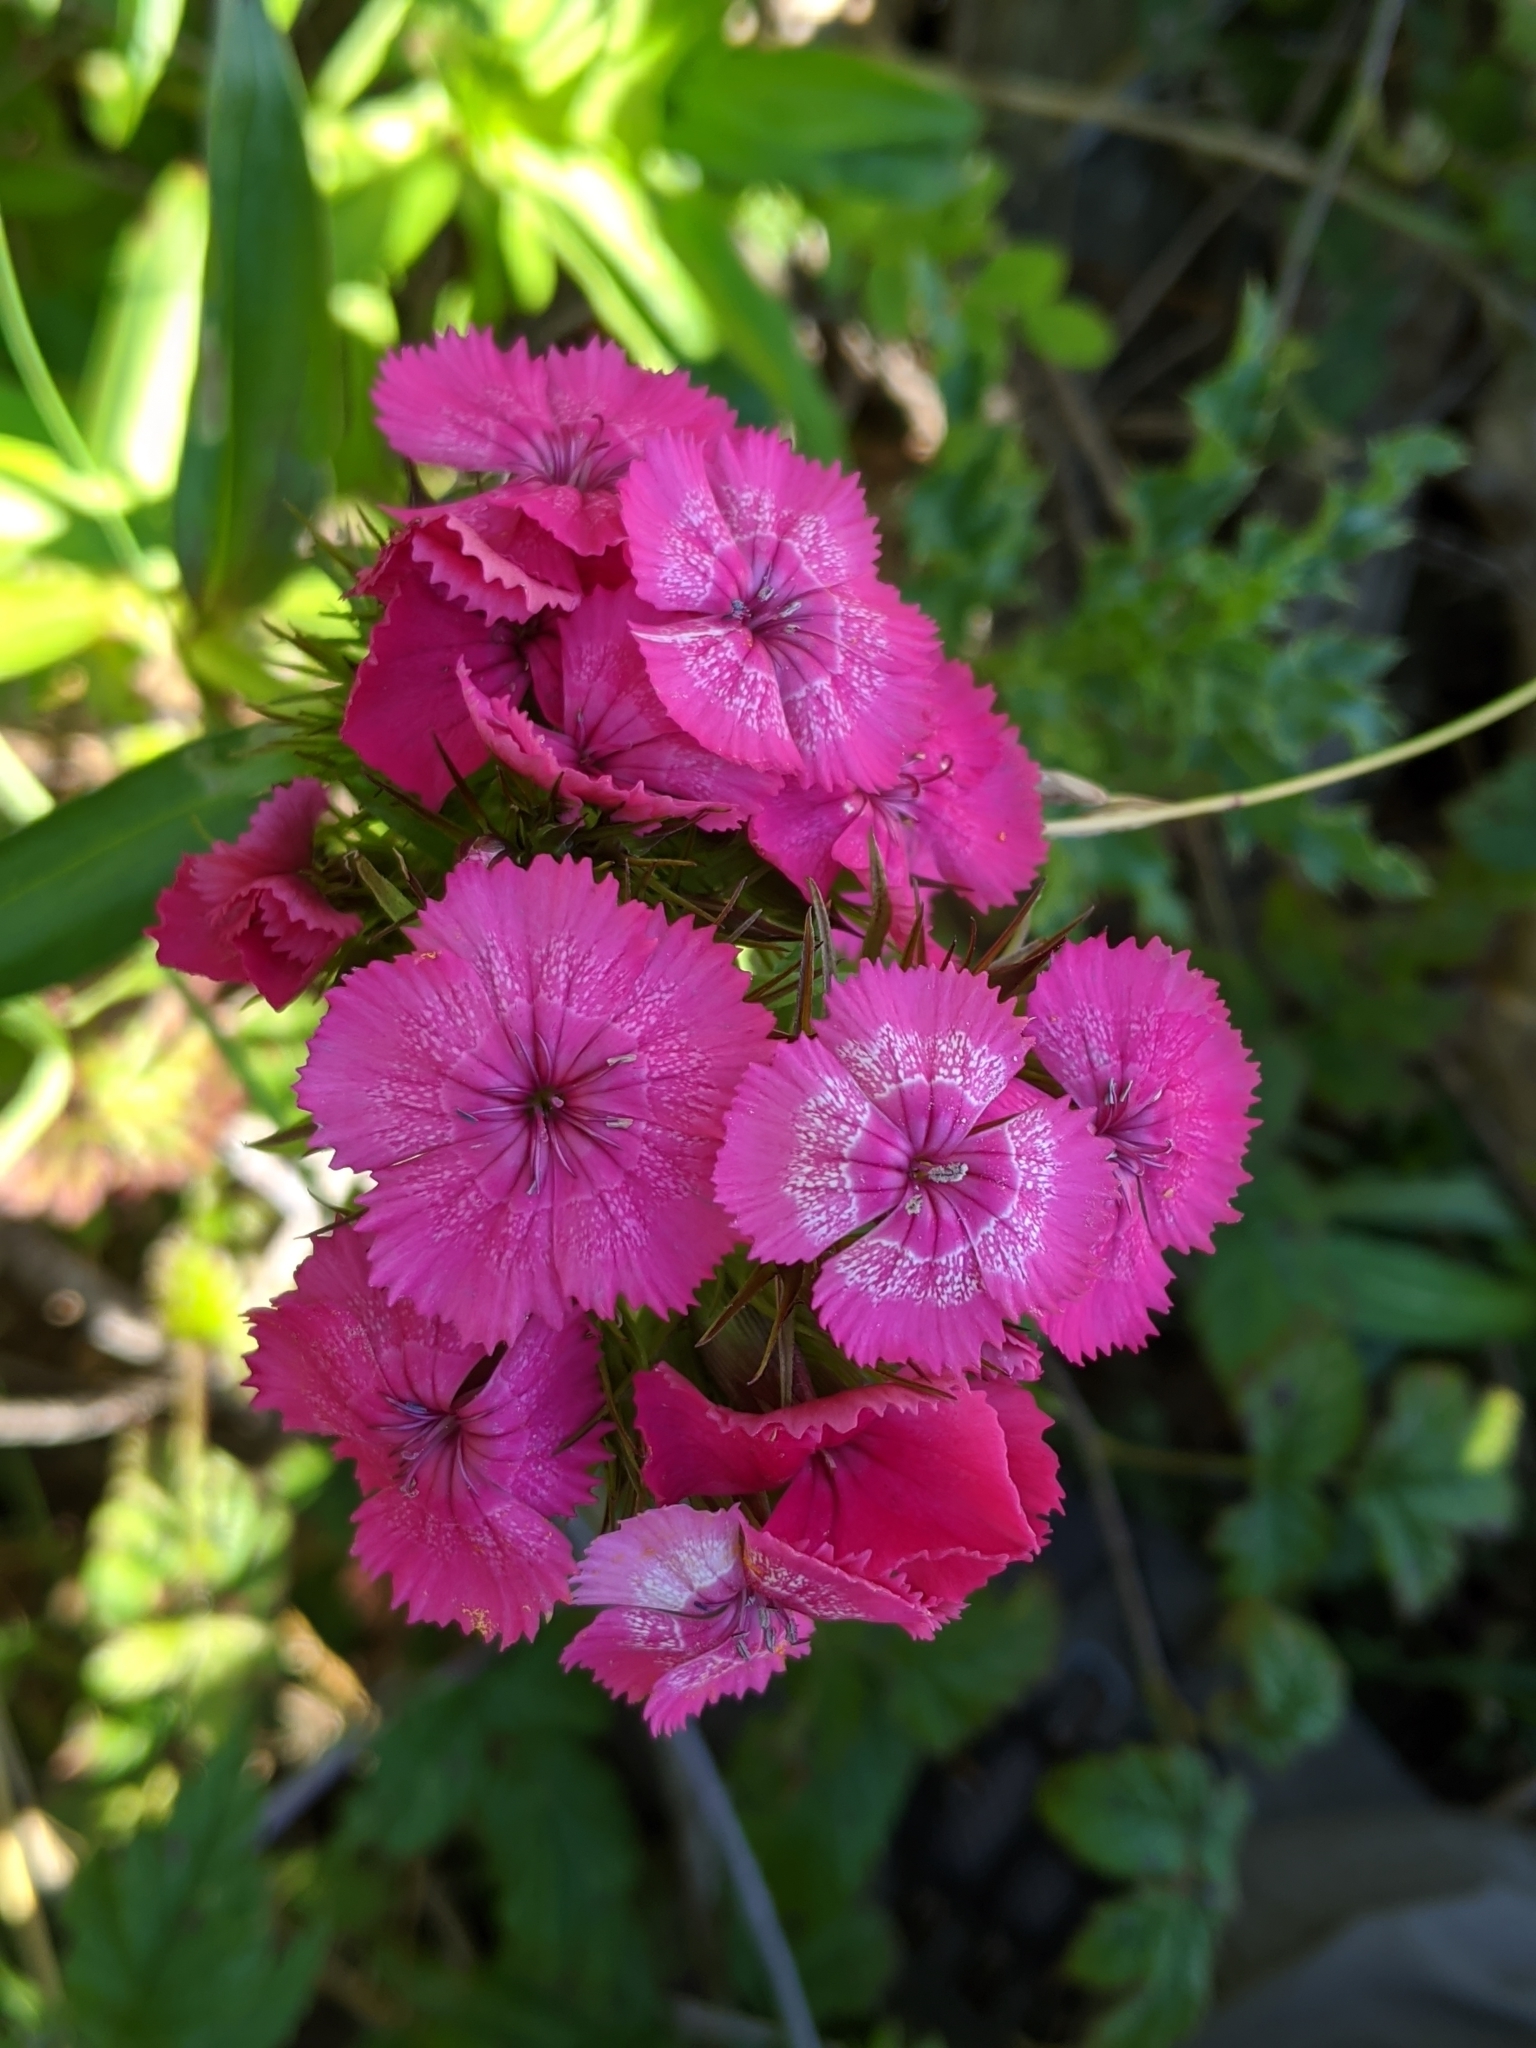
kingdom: Plantae
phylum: Tracheophyta
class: Magnoliopsida
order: Caryophyllales
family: Caryophyllaceae
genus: Dianthus
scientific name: Dianthus barbatus
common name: Sweet-william
